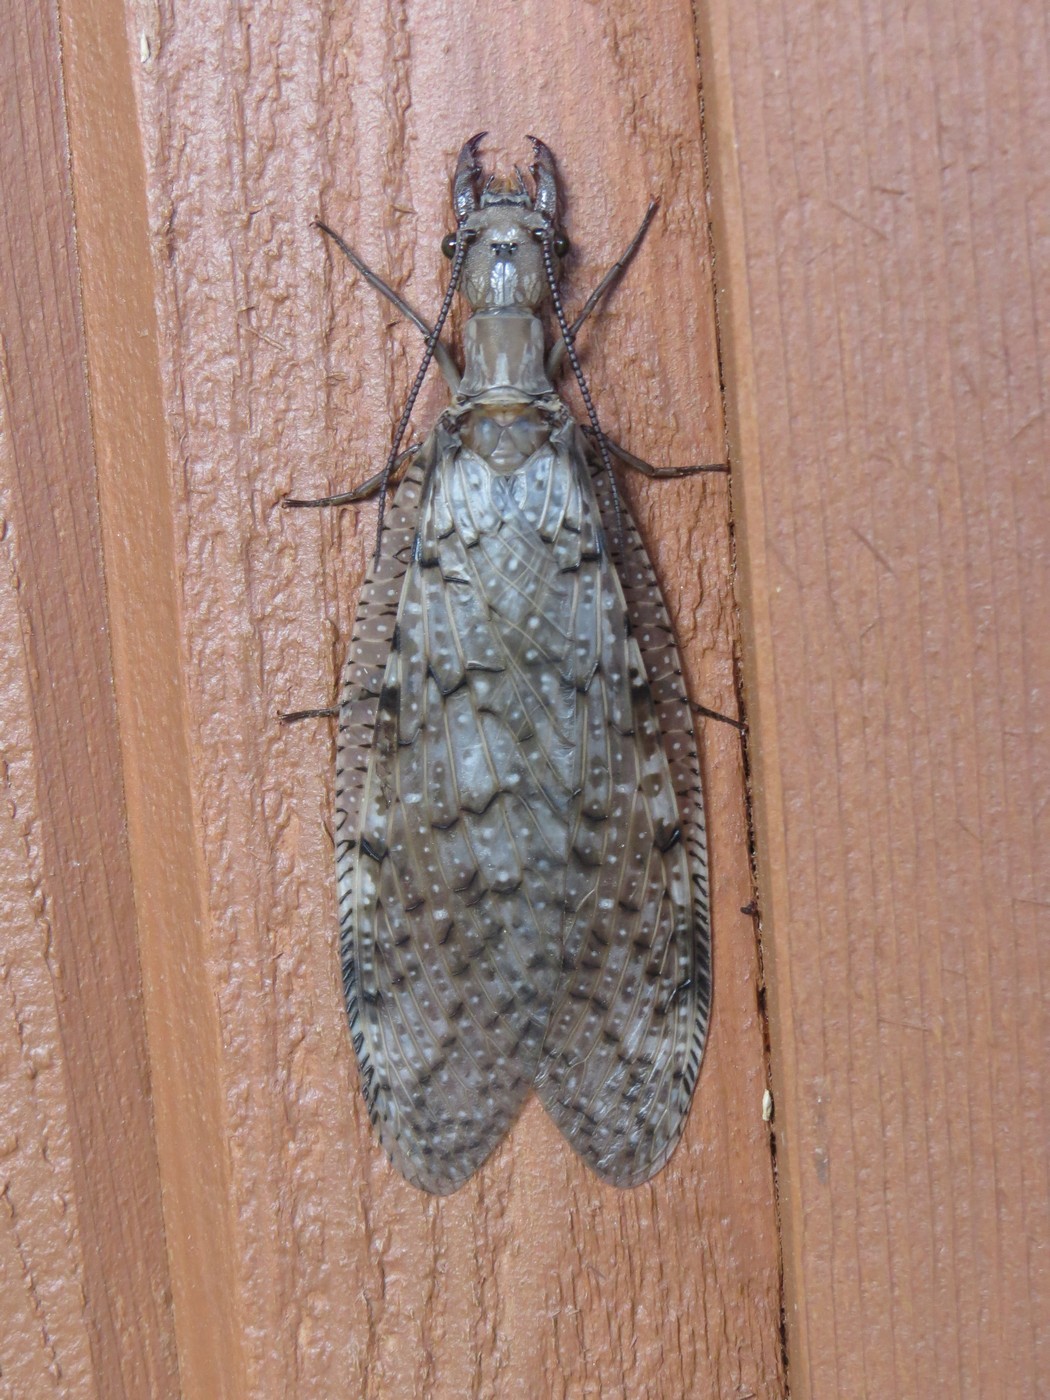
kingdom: Animalia
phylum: Arthropoda
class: Insecta
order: Megaloptera
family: Corydalidae
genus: Corydalus
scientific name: Corydalus cornutus
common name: Dobsonfly
